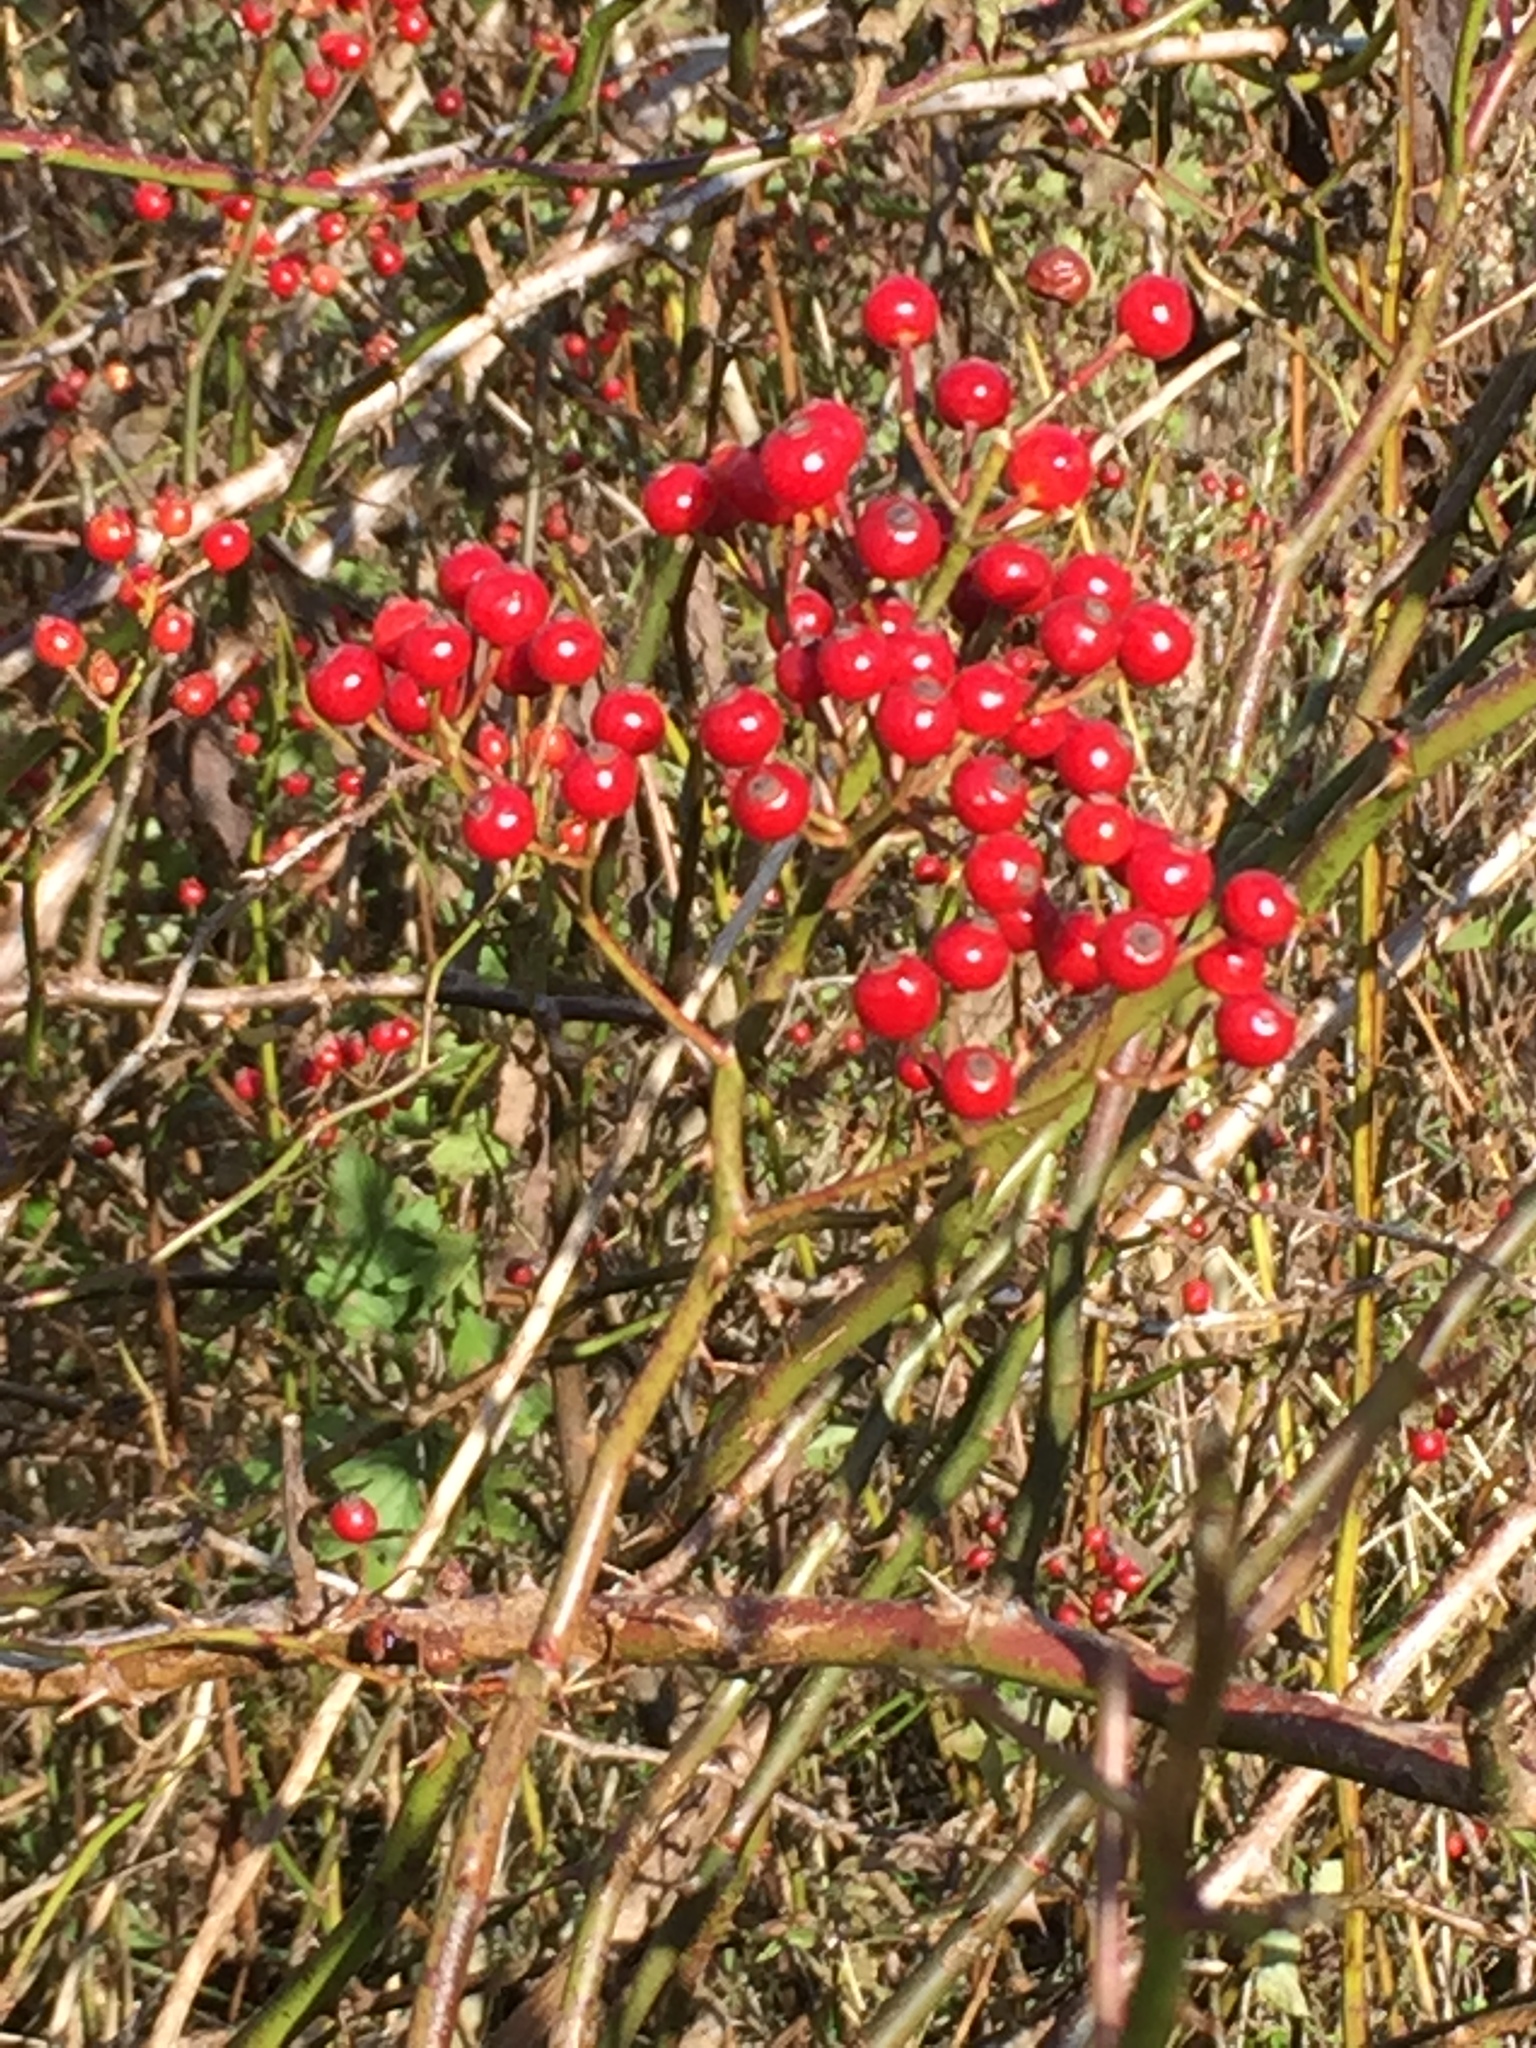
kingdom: Plantae
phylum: Tracheophyta
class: Magnoliopsida
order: Rosales
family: Rosaceae
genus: Rosa
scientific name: Rosa multiflora
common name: Multiflora rose
